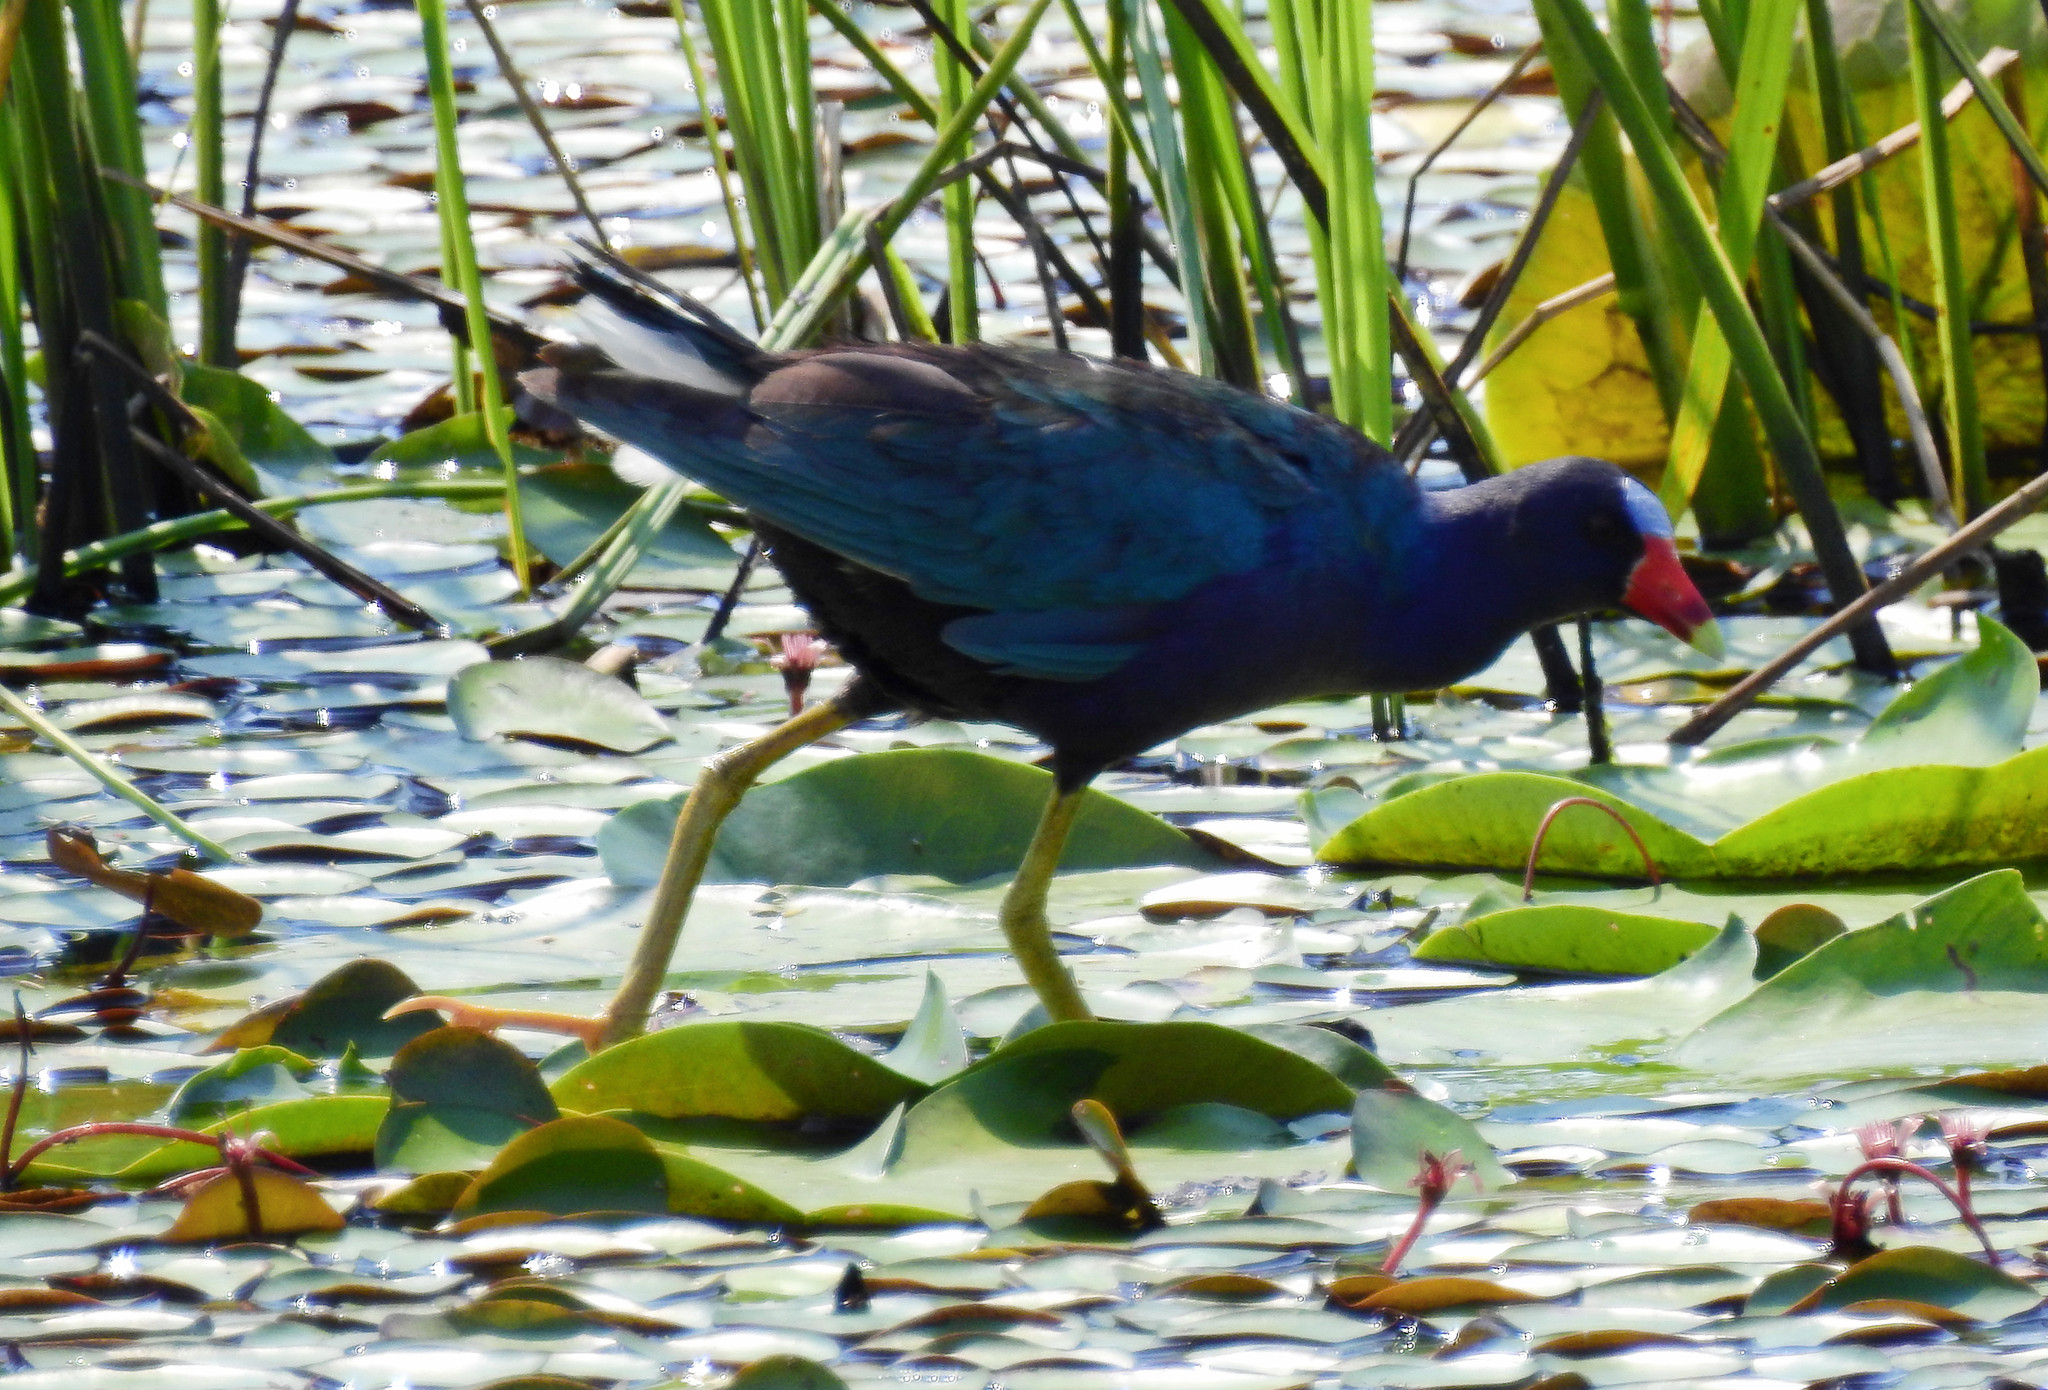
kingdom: Animalia
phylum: Chordata
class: Aves
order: Gruiformes
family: Rallidae
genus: Porphyrio
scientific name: Porphyrio martinica
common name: Purple gallinule
